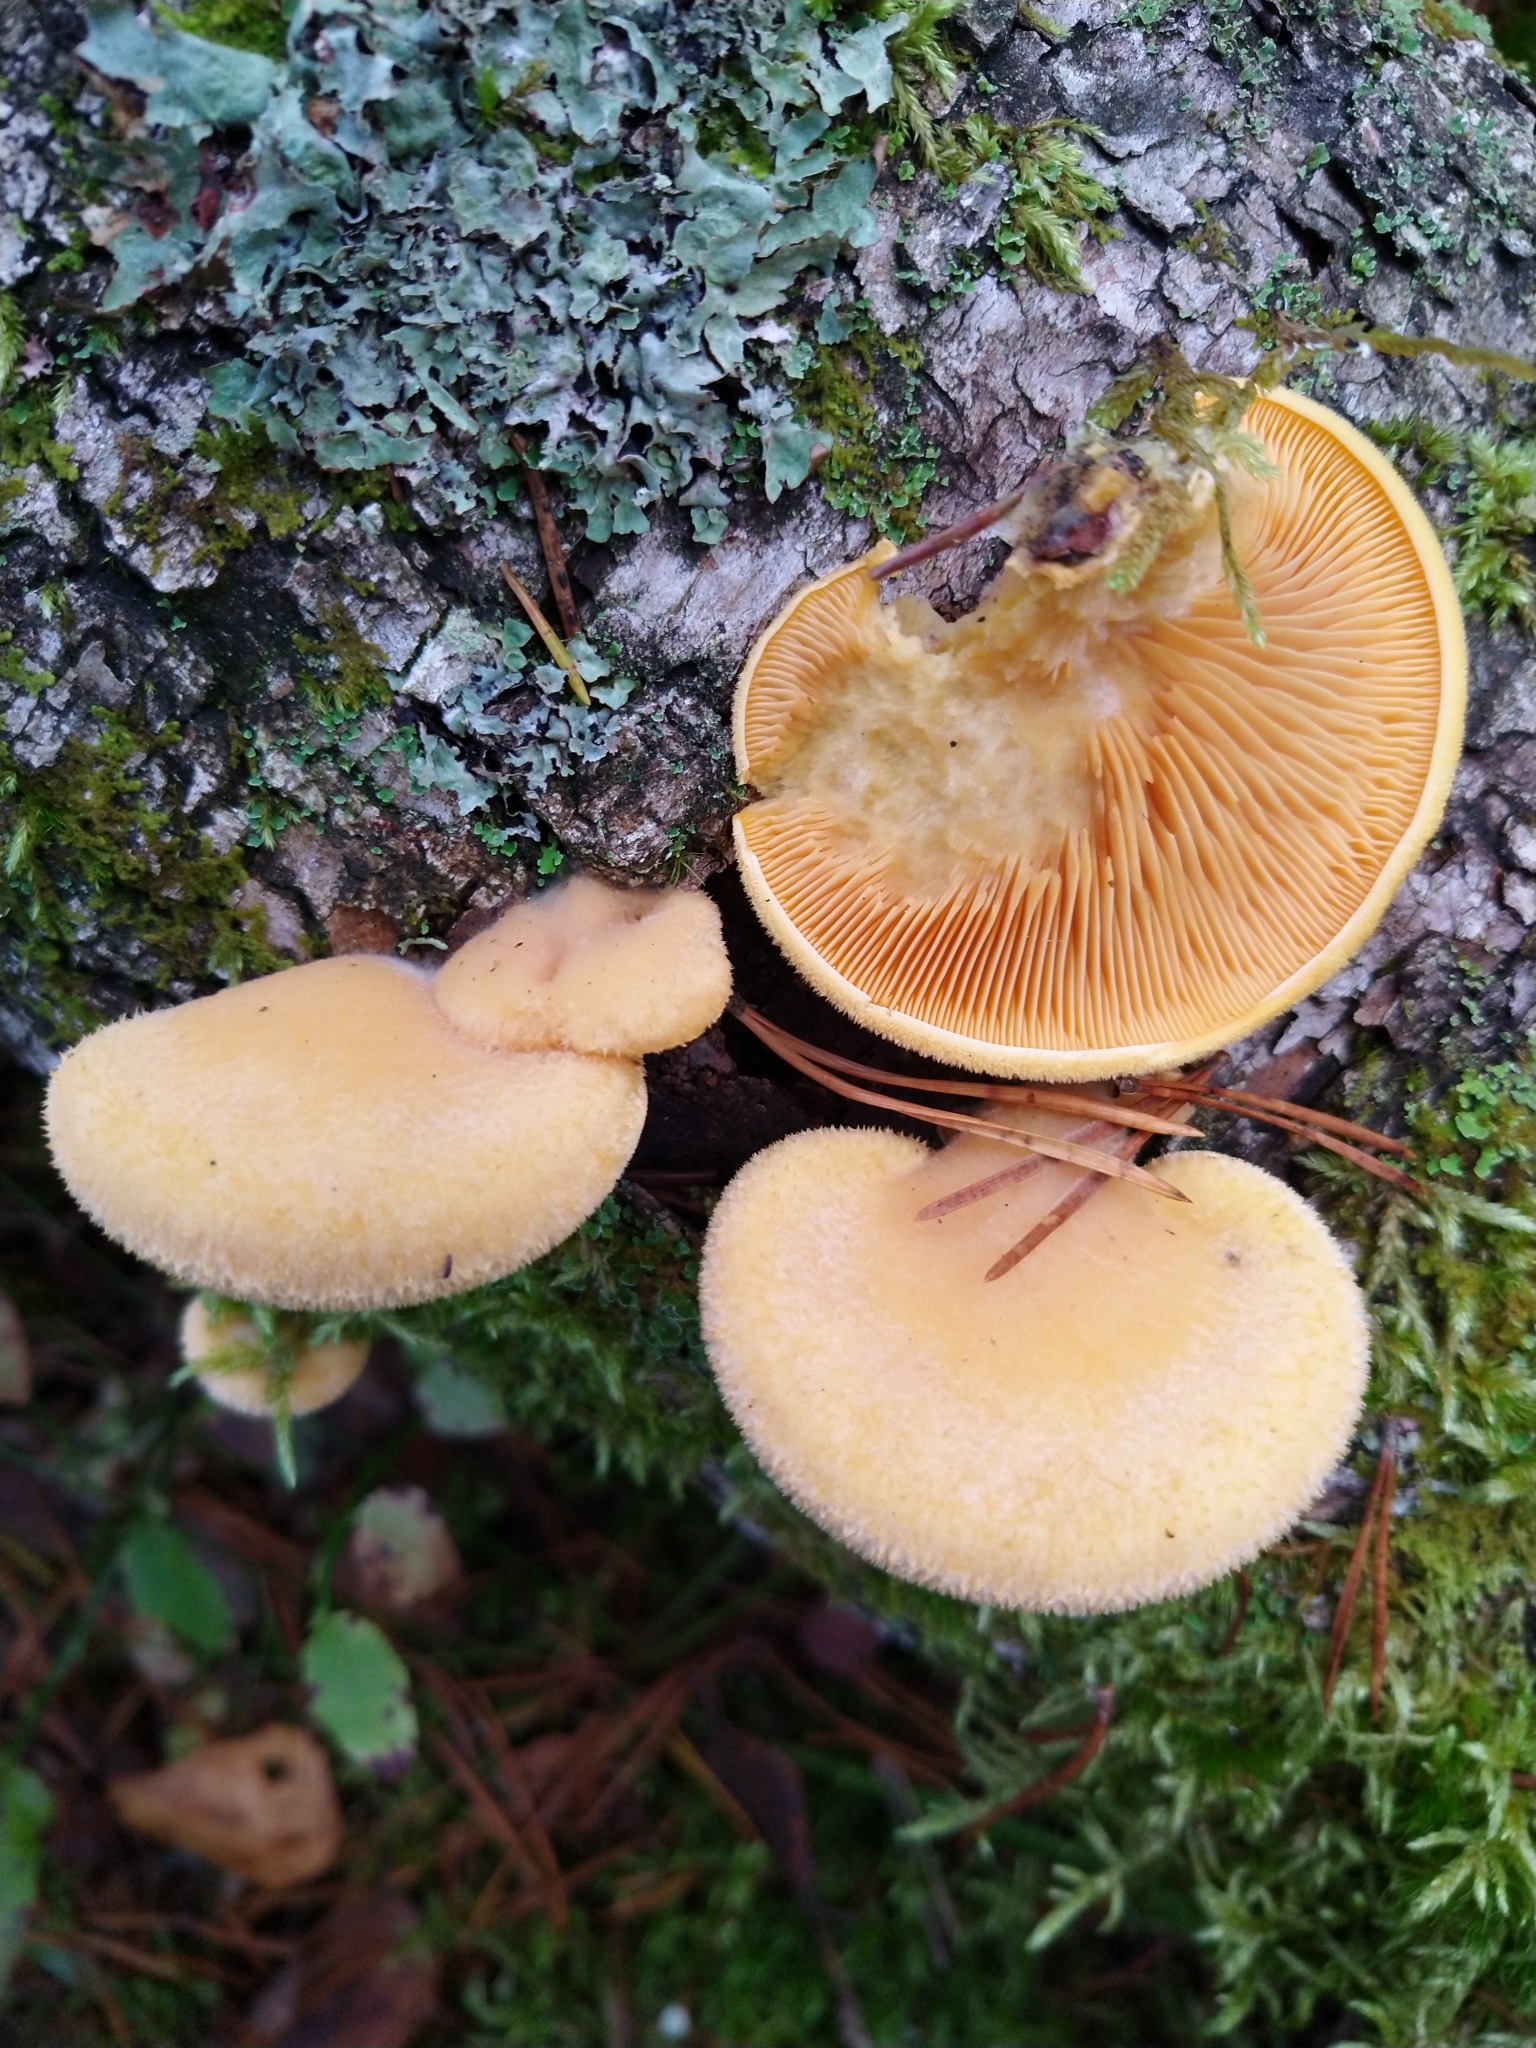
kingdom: Fungi
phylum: Basidiomycota
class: Agaricomycetes
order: Agaricales
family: Phyllotopsidaceae
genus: Phyllotopsis
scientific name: Phyllotopsis nidulans
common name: Orange mock oyster
